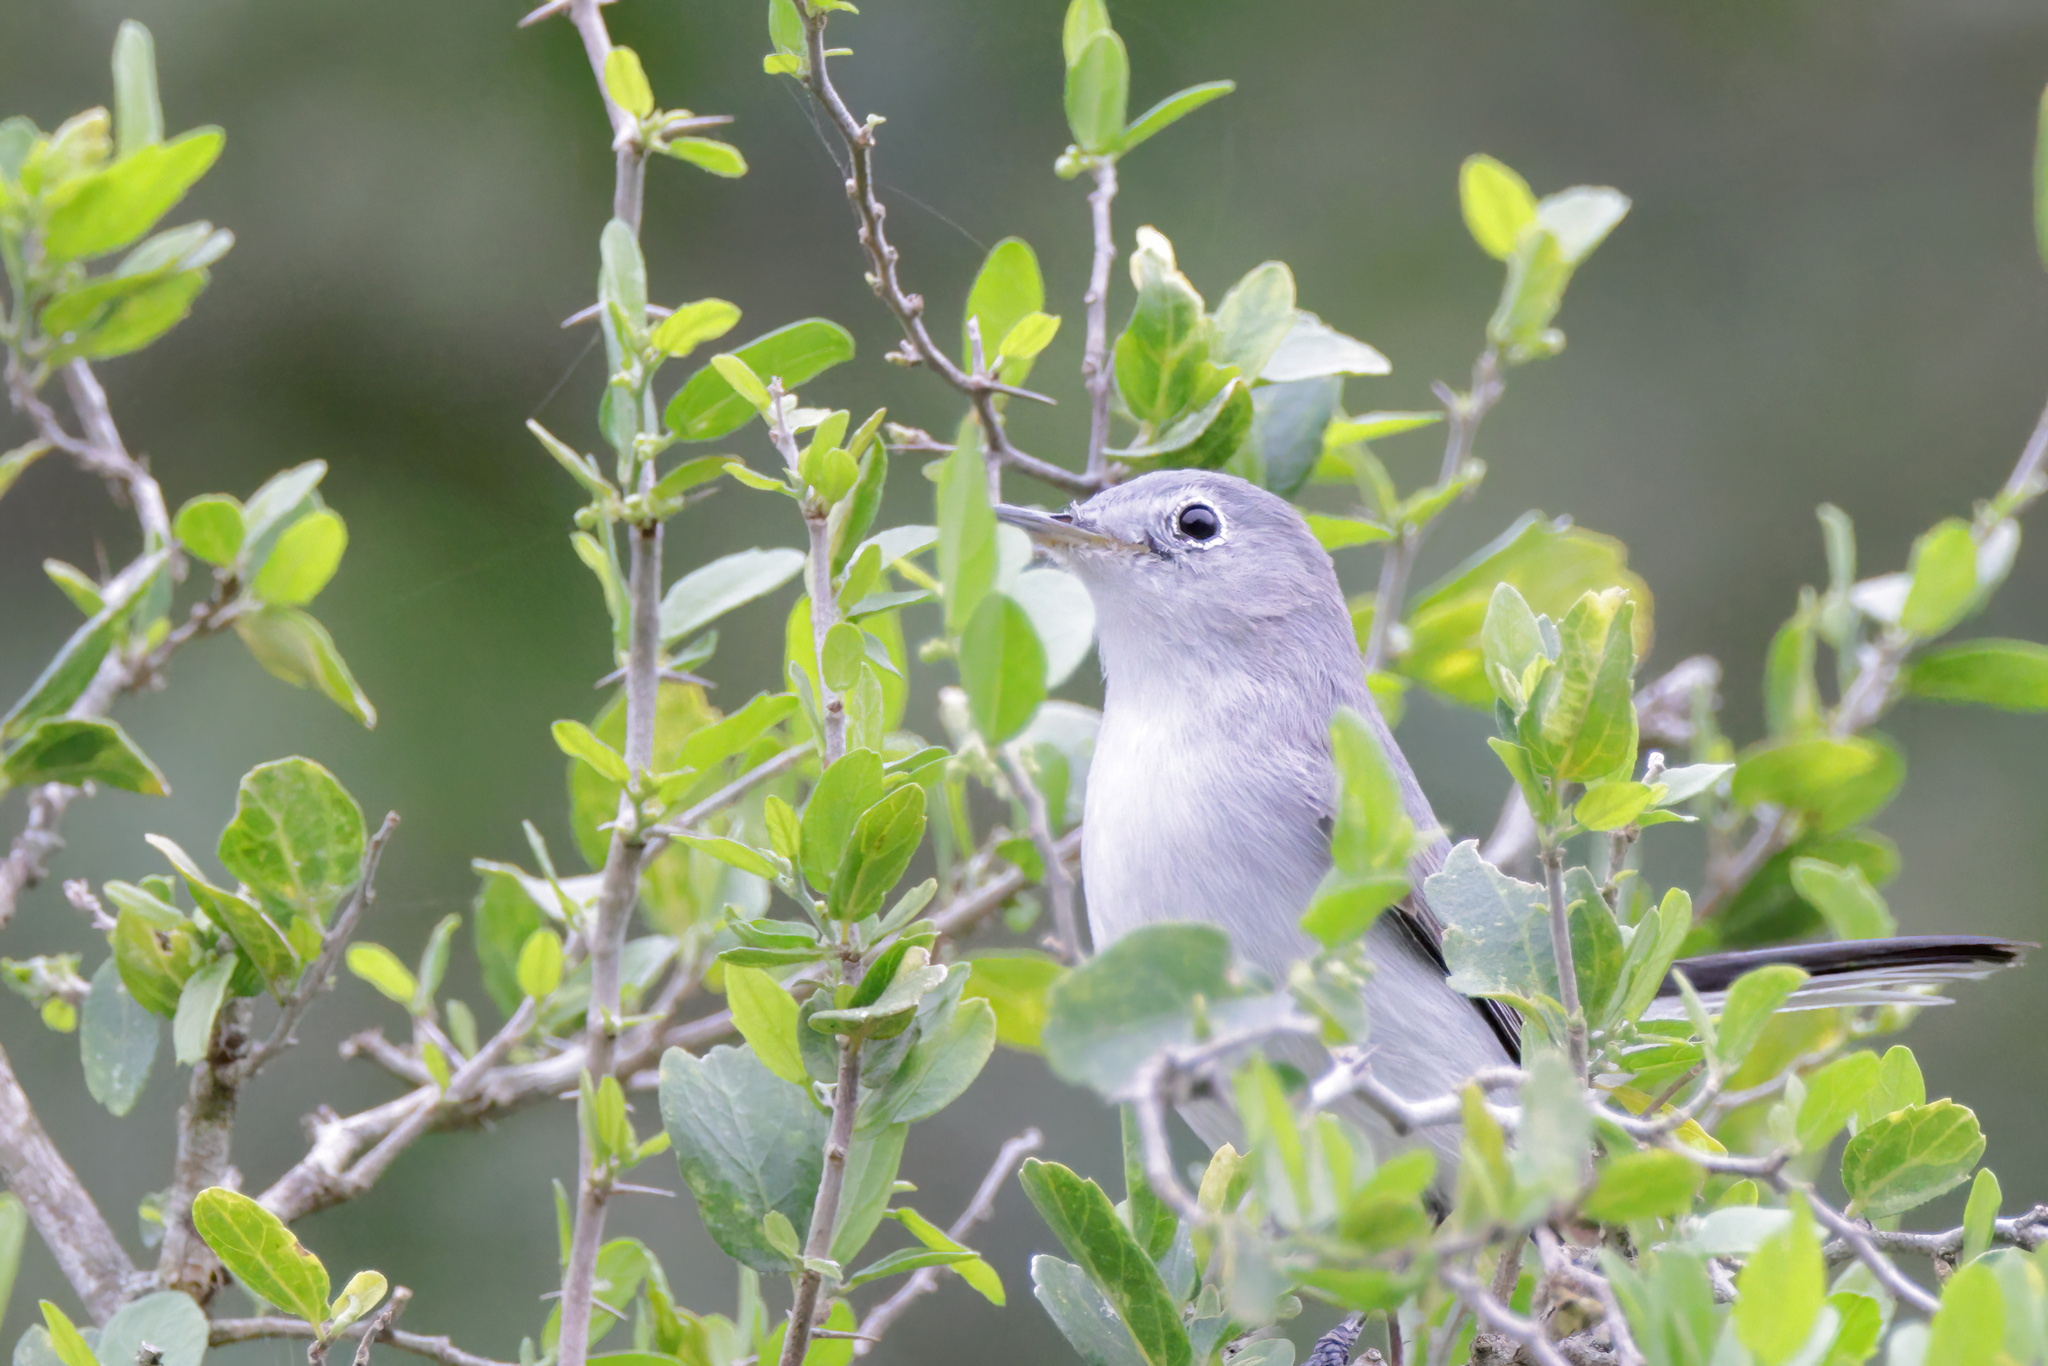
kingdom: Animalia
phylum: Chordata
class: Aves
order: Passeriformes
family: Polioptilidae
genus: Polioptila
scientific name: Polioptila caerulea
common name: Blue-gray gnatcatcher
